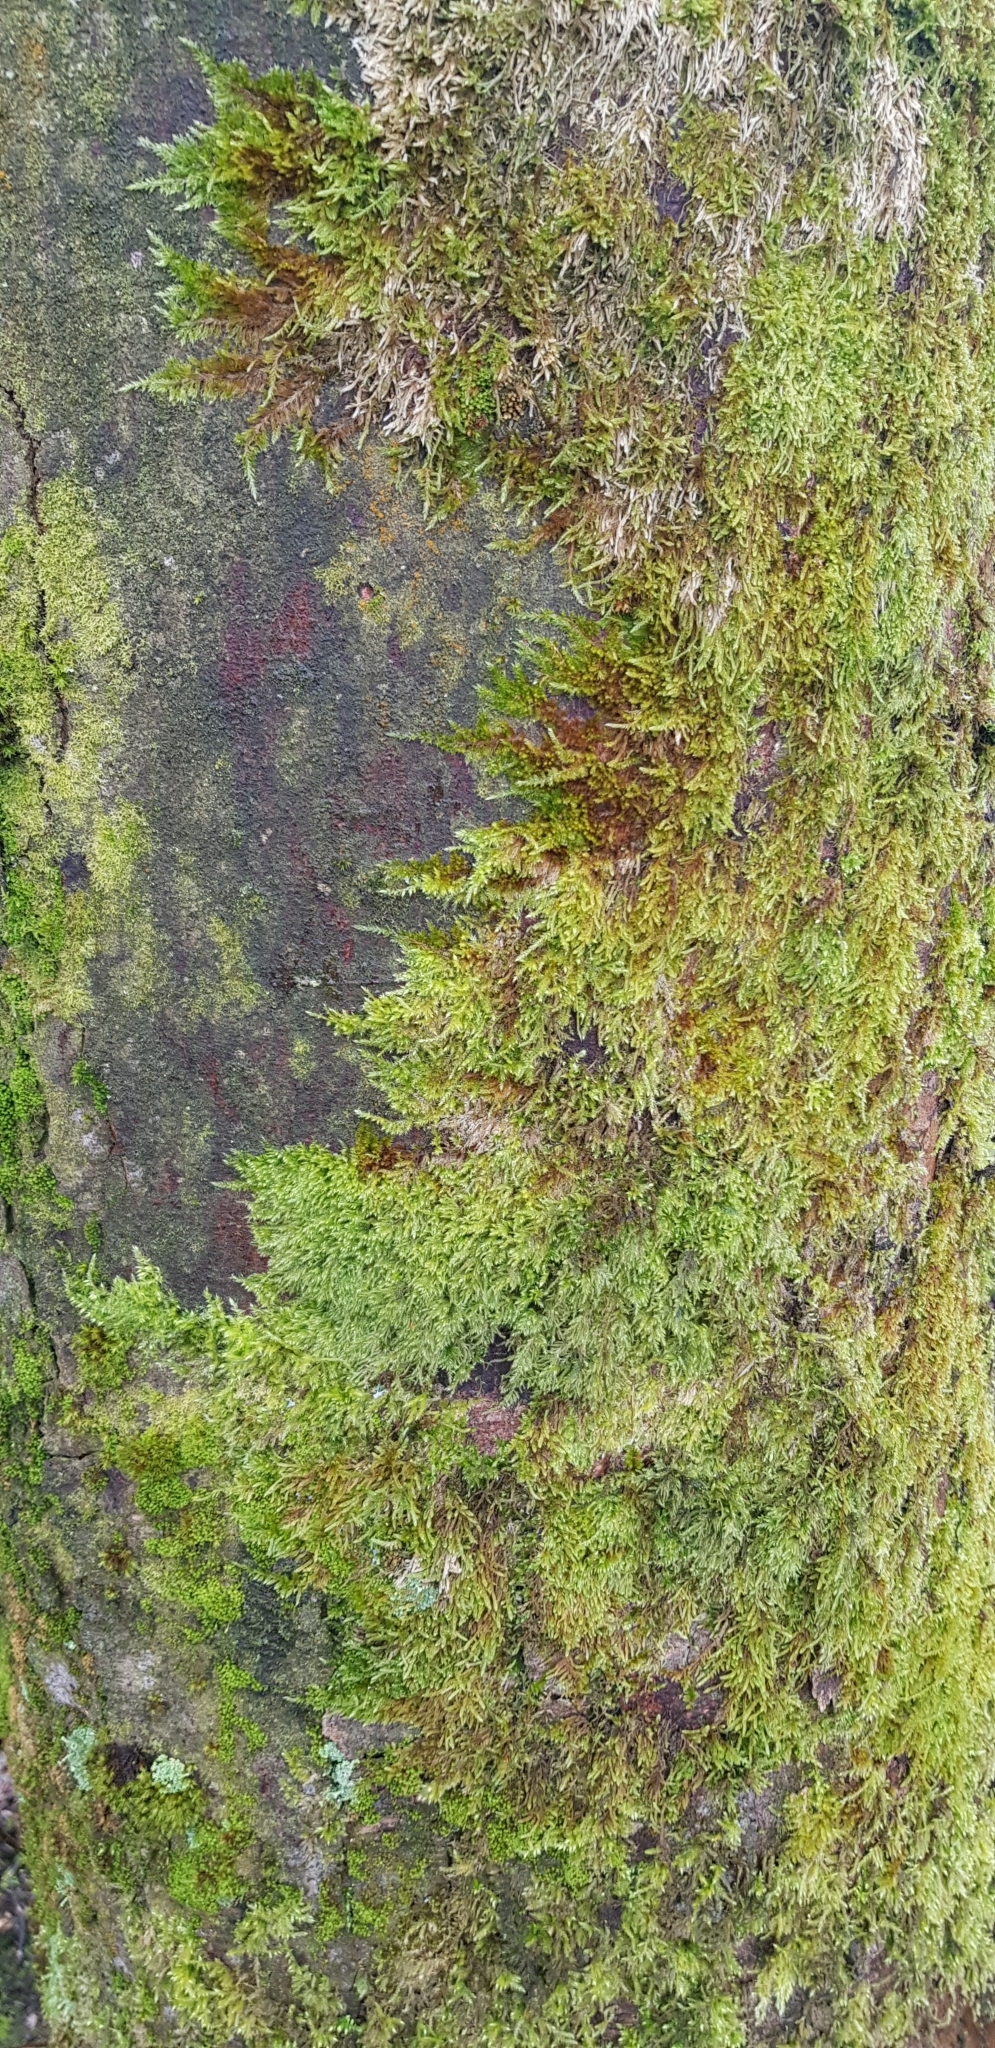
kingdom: Plantae
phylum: Bryophyta
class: Bryopsida
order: Hypnales
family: Lembophyllaceae
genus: Pseudisothecium
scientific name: Pseudisothecium myosuroides
